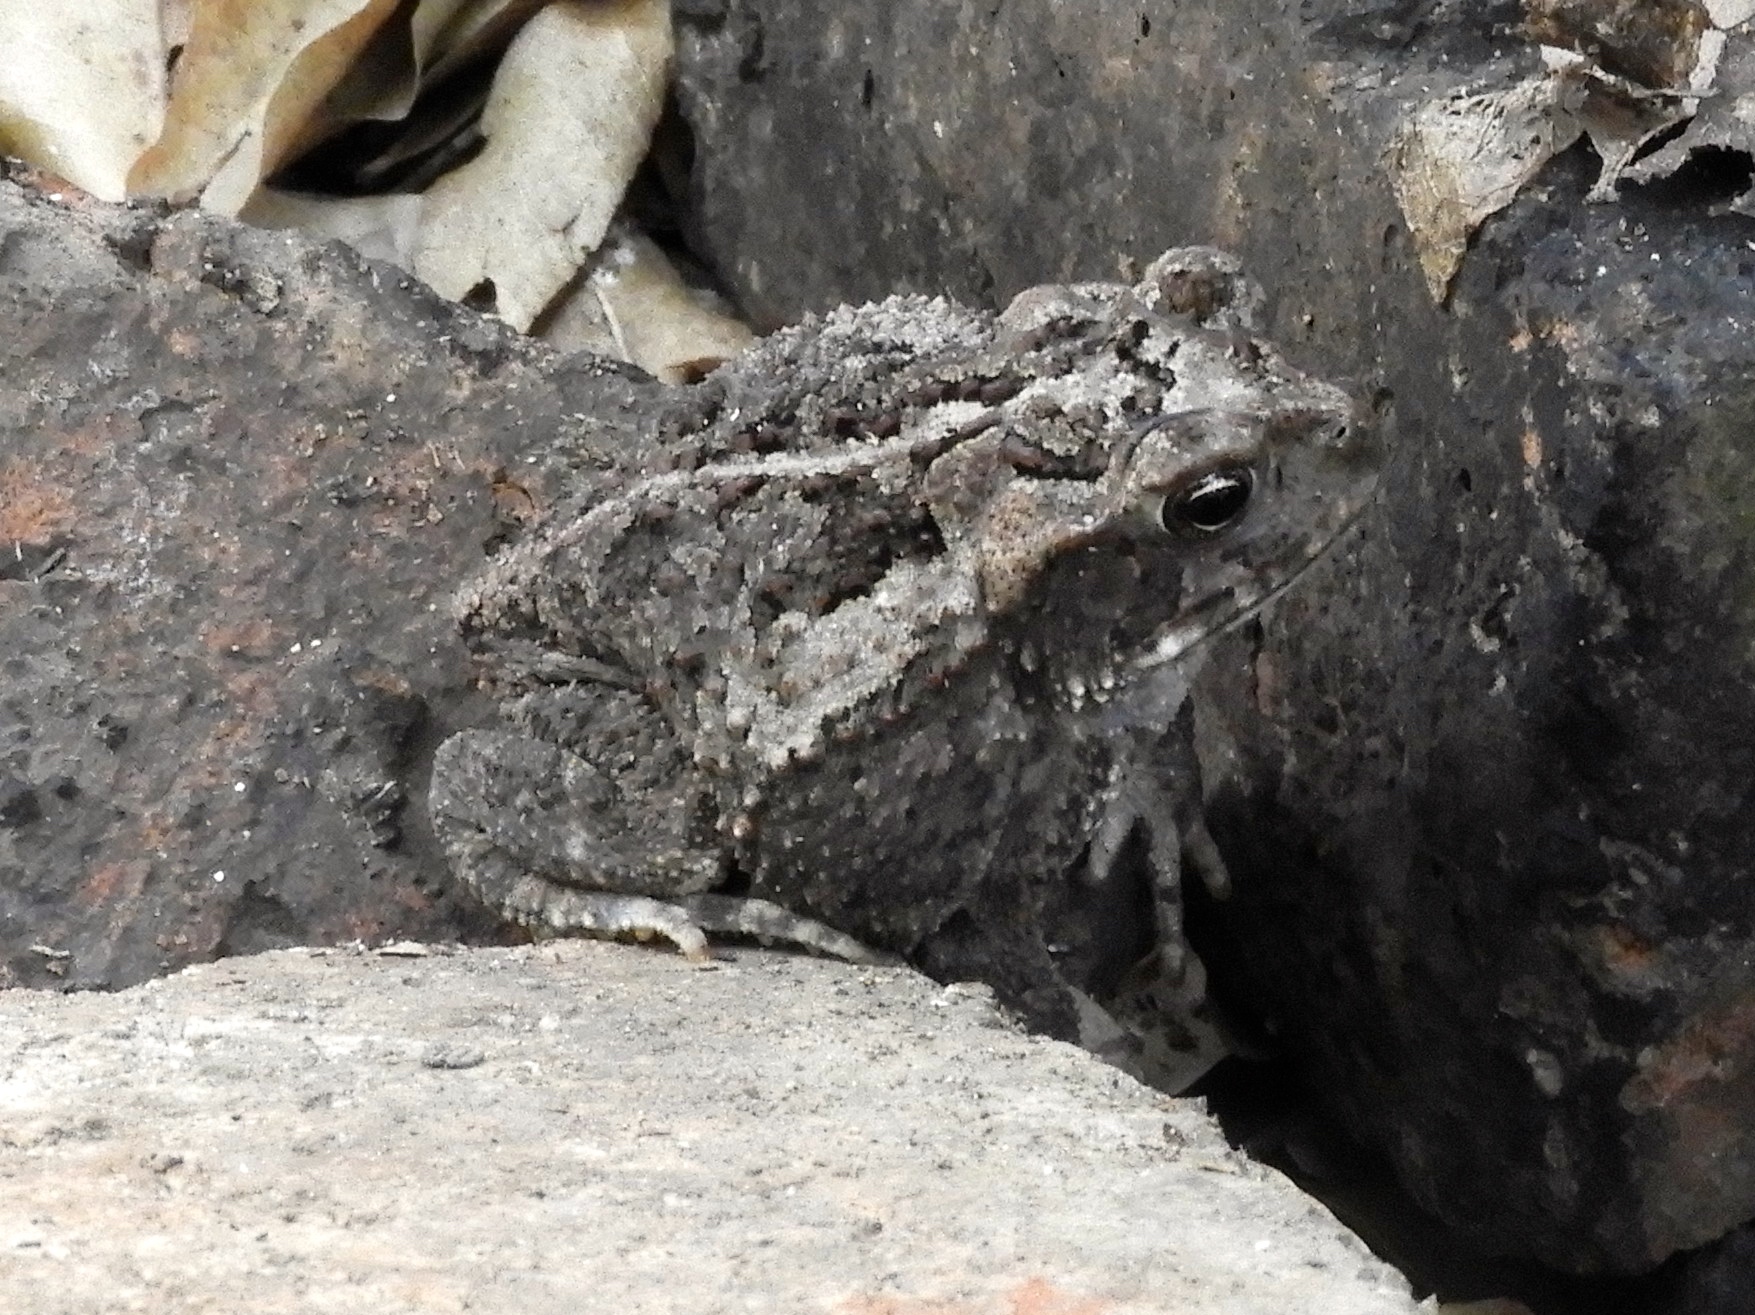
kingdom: Animalia
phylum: Chordata
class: Amphibia
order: Anura
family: Bufonidae
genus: Incilius
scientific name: Incilius mazatlanensis
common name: Sinaloa toad
